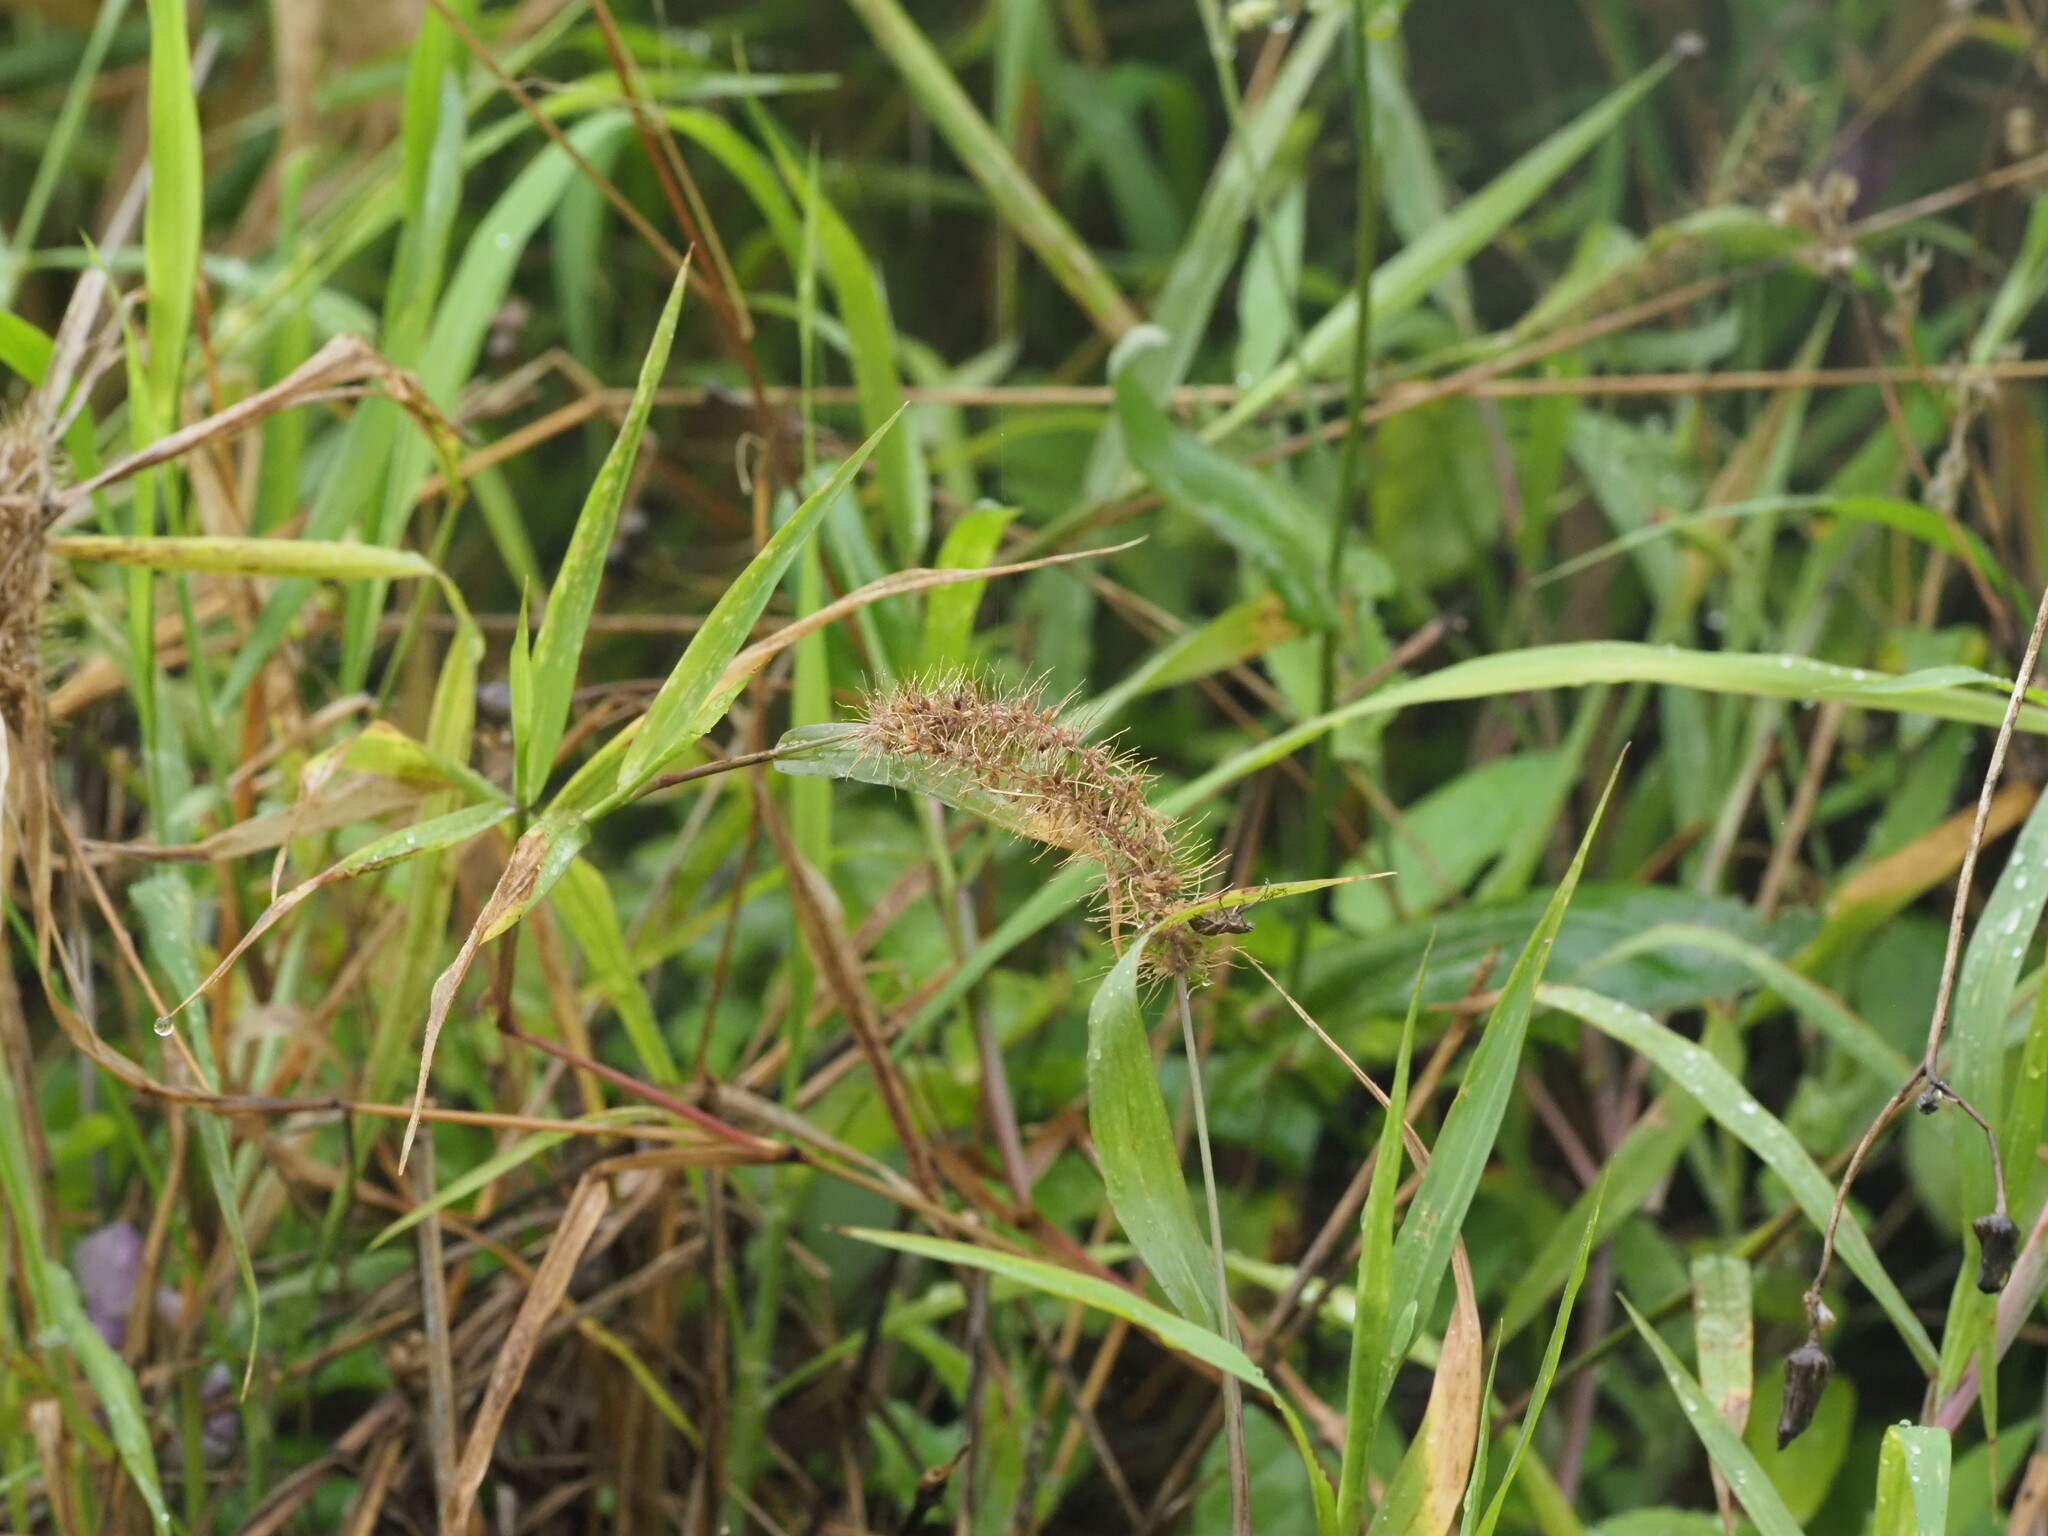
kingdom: Plantae
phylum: Tracheophyta
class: Liliopsida
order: Poales
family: Poaceae
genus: Setaria
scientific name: Setaria adhaerens
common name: Adherent bristle-grass
